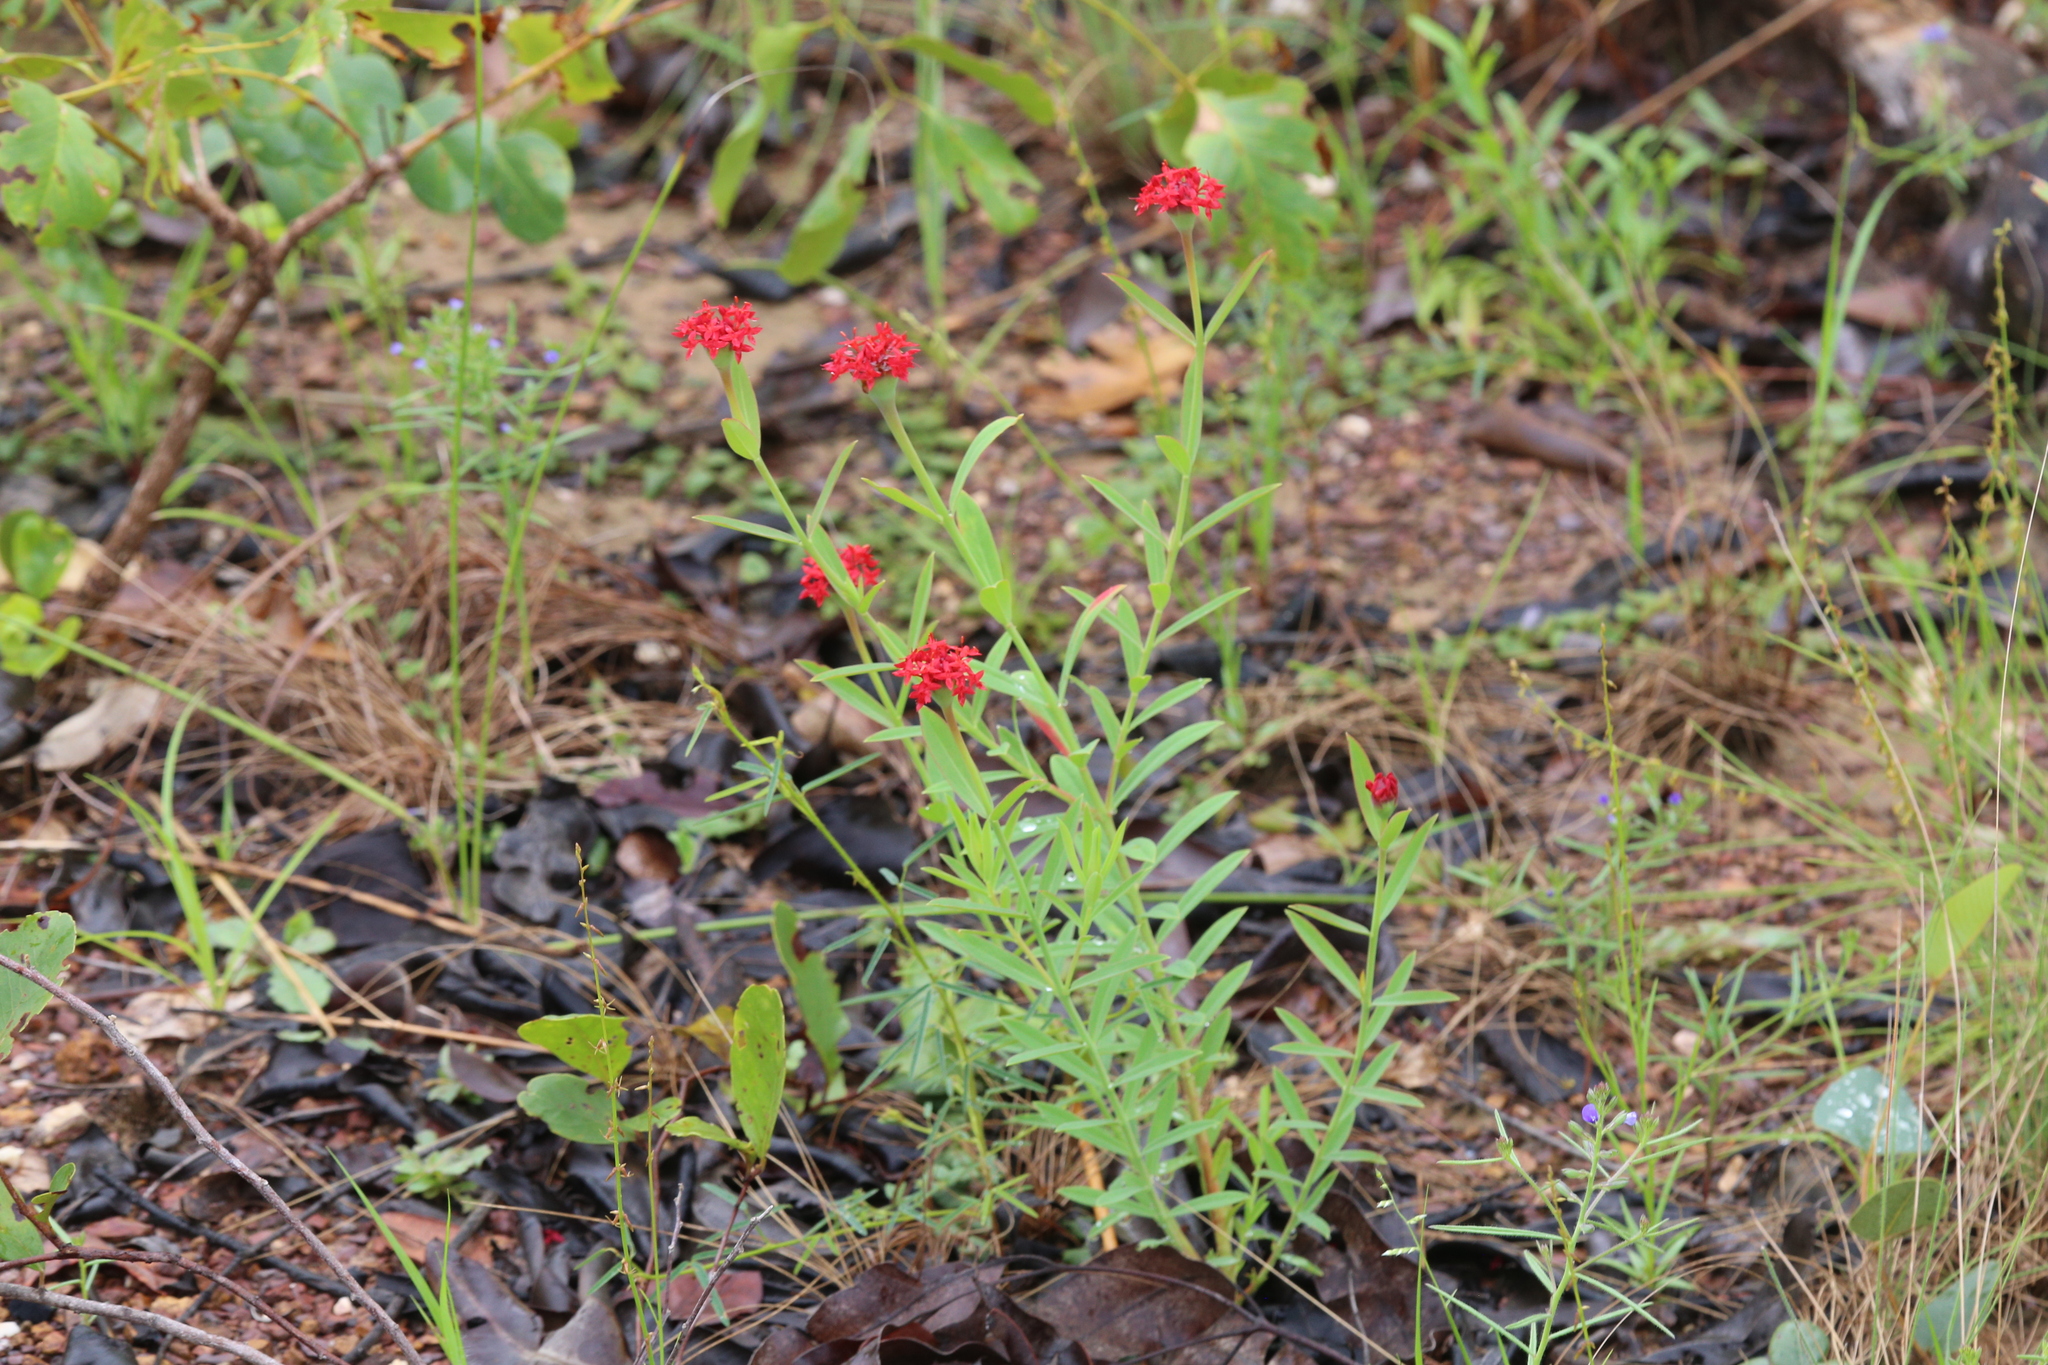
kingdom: Plantae
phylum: Tracheophyta
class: Magnoliopsida
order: Malvales
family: Thymelaeaceae
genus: Pimelea
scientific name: Pimelea punicea
